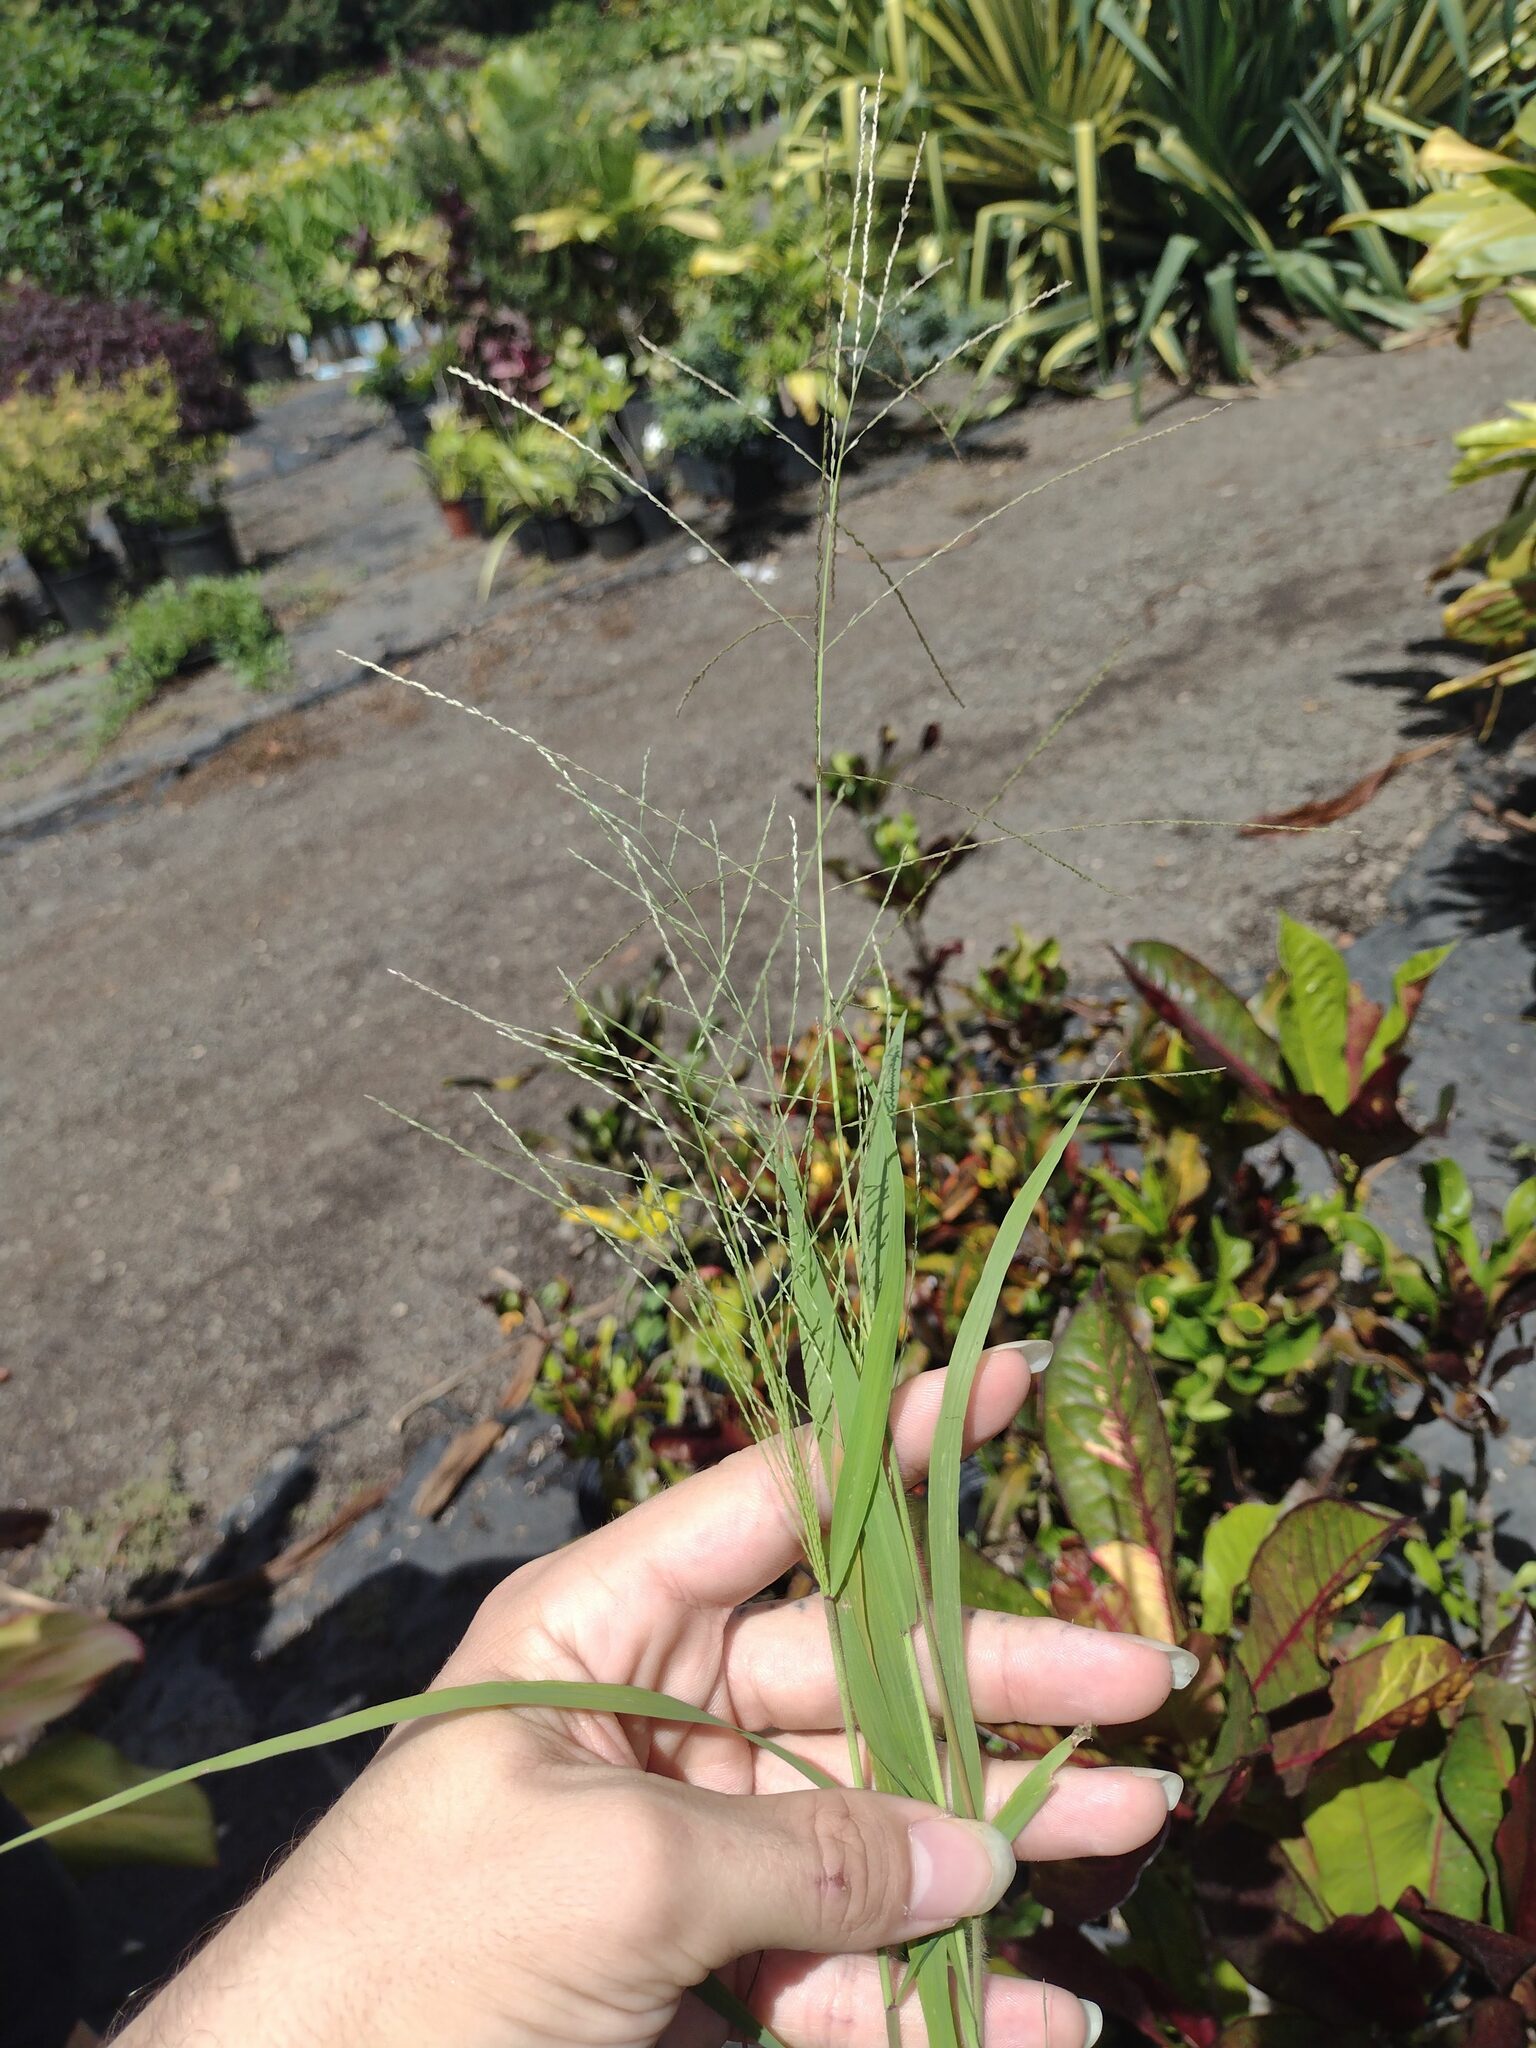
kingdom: Plantae
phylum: Tracheophyta
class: Liliopsida
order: Poales
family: Poaceae
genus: Leptochloa
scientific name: Leptochloa panicea
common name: Mucronate sprangletop
